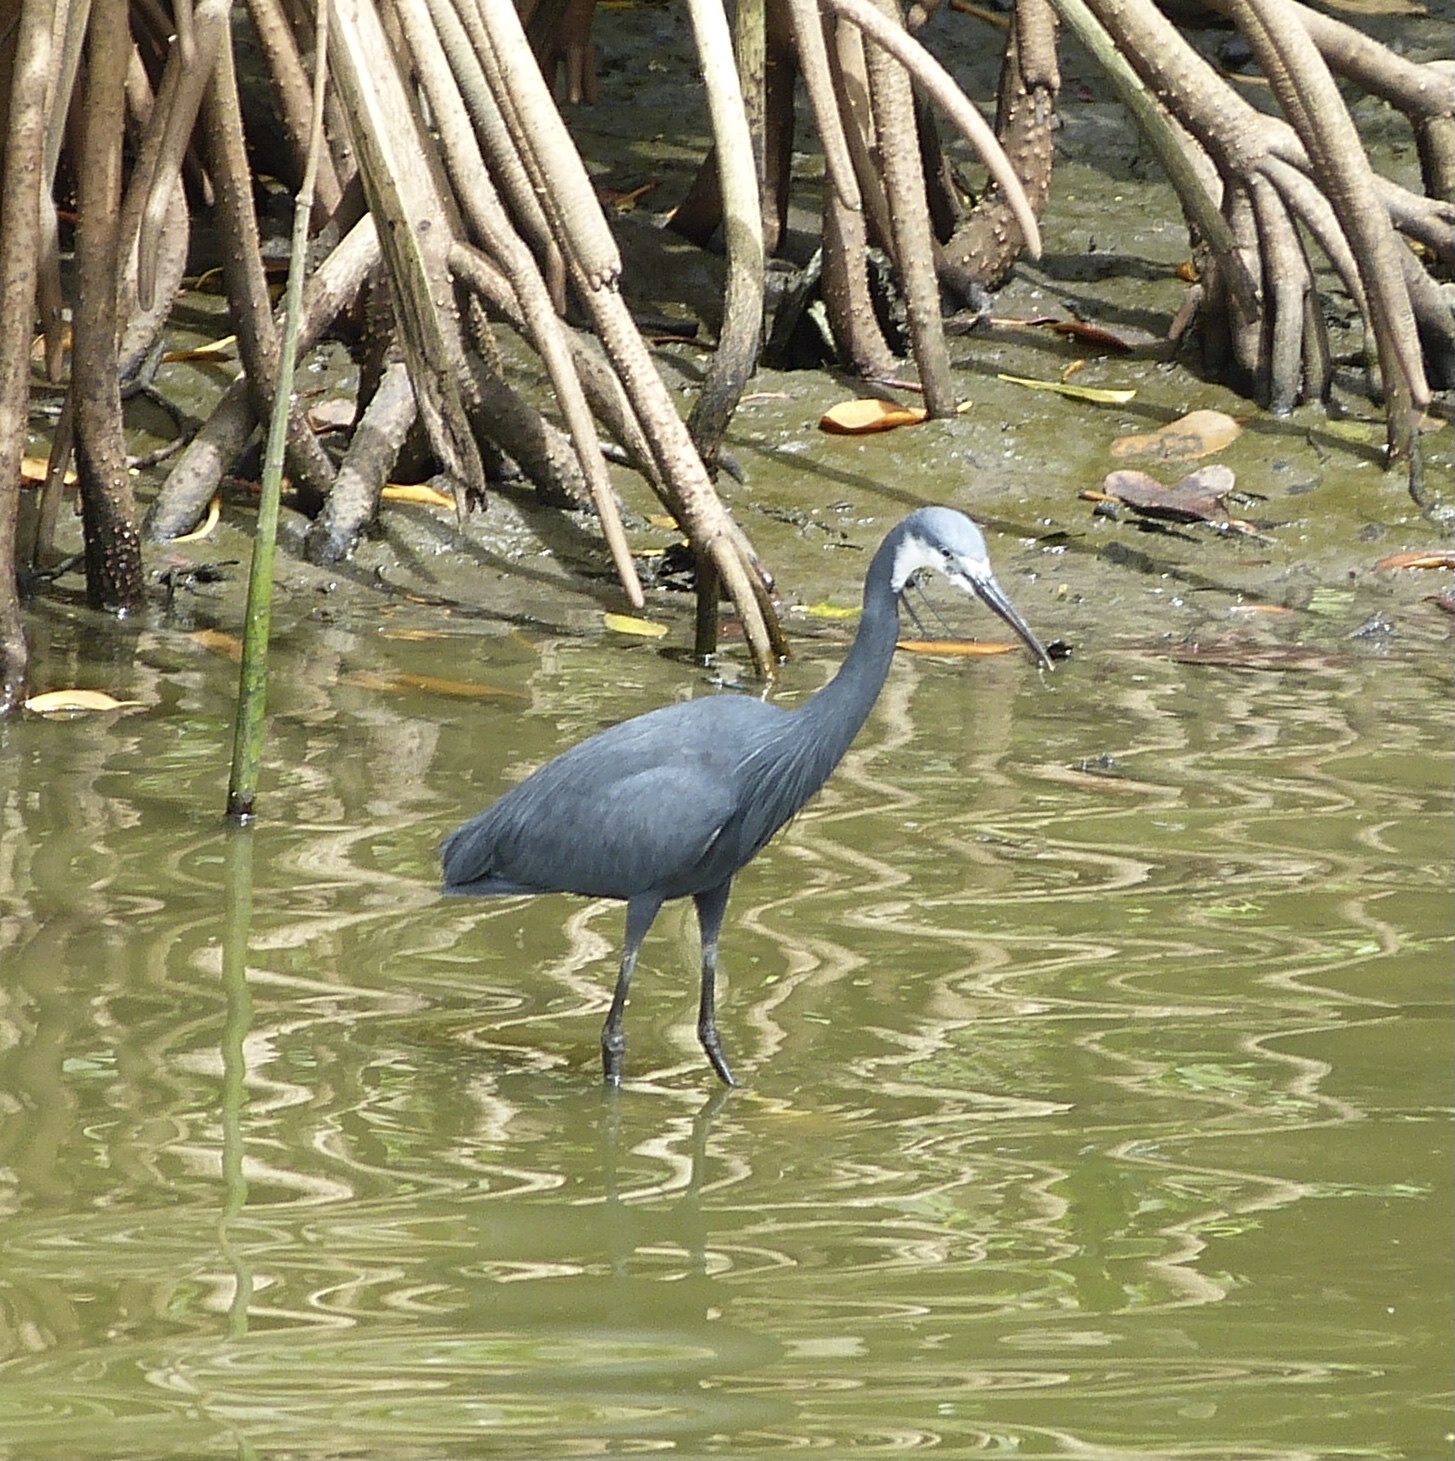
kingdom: Animalia
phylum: Chordata
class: Aves
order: Pelecaniformes
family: Ardeidae
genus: Egretta
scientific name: Egretta gularis
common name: Western reef-heron
